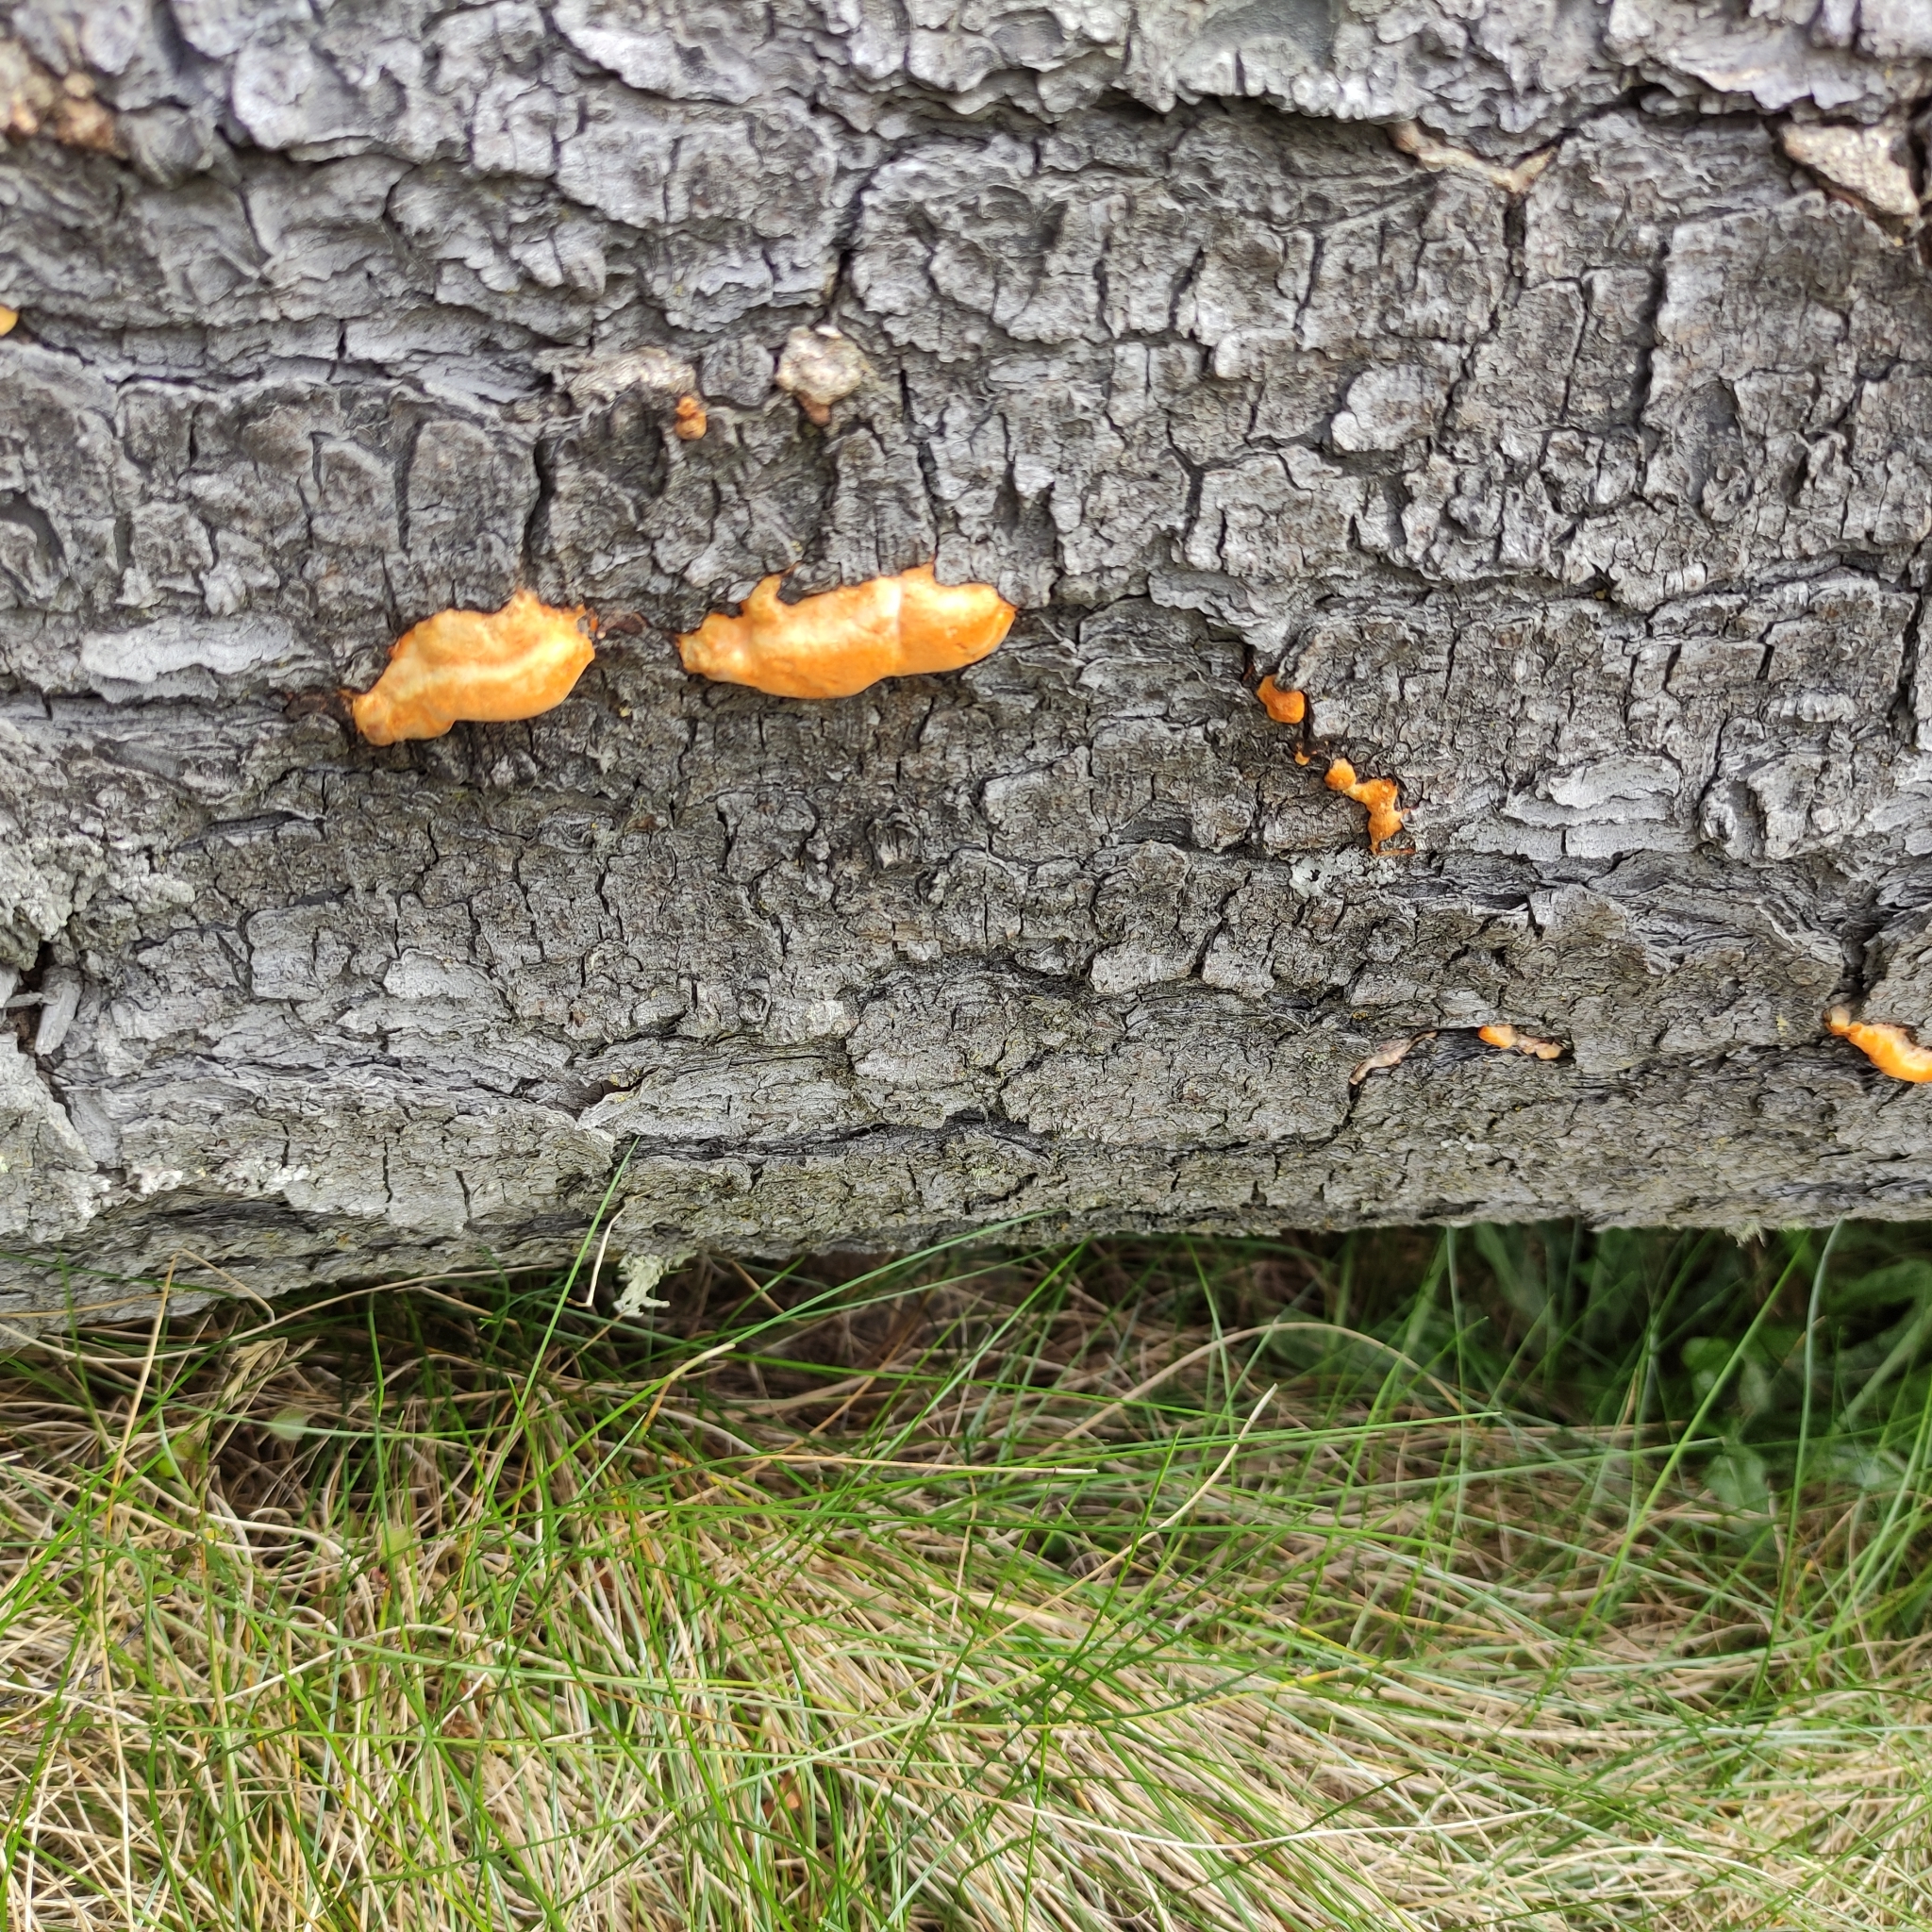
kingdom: Fungi
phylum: Basidiomycota
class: Agaricomycetes
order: Polyporales
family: Polyporaceae
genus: Trametes
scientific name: Trametes coccinea
